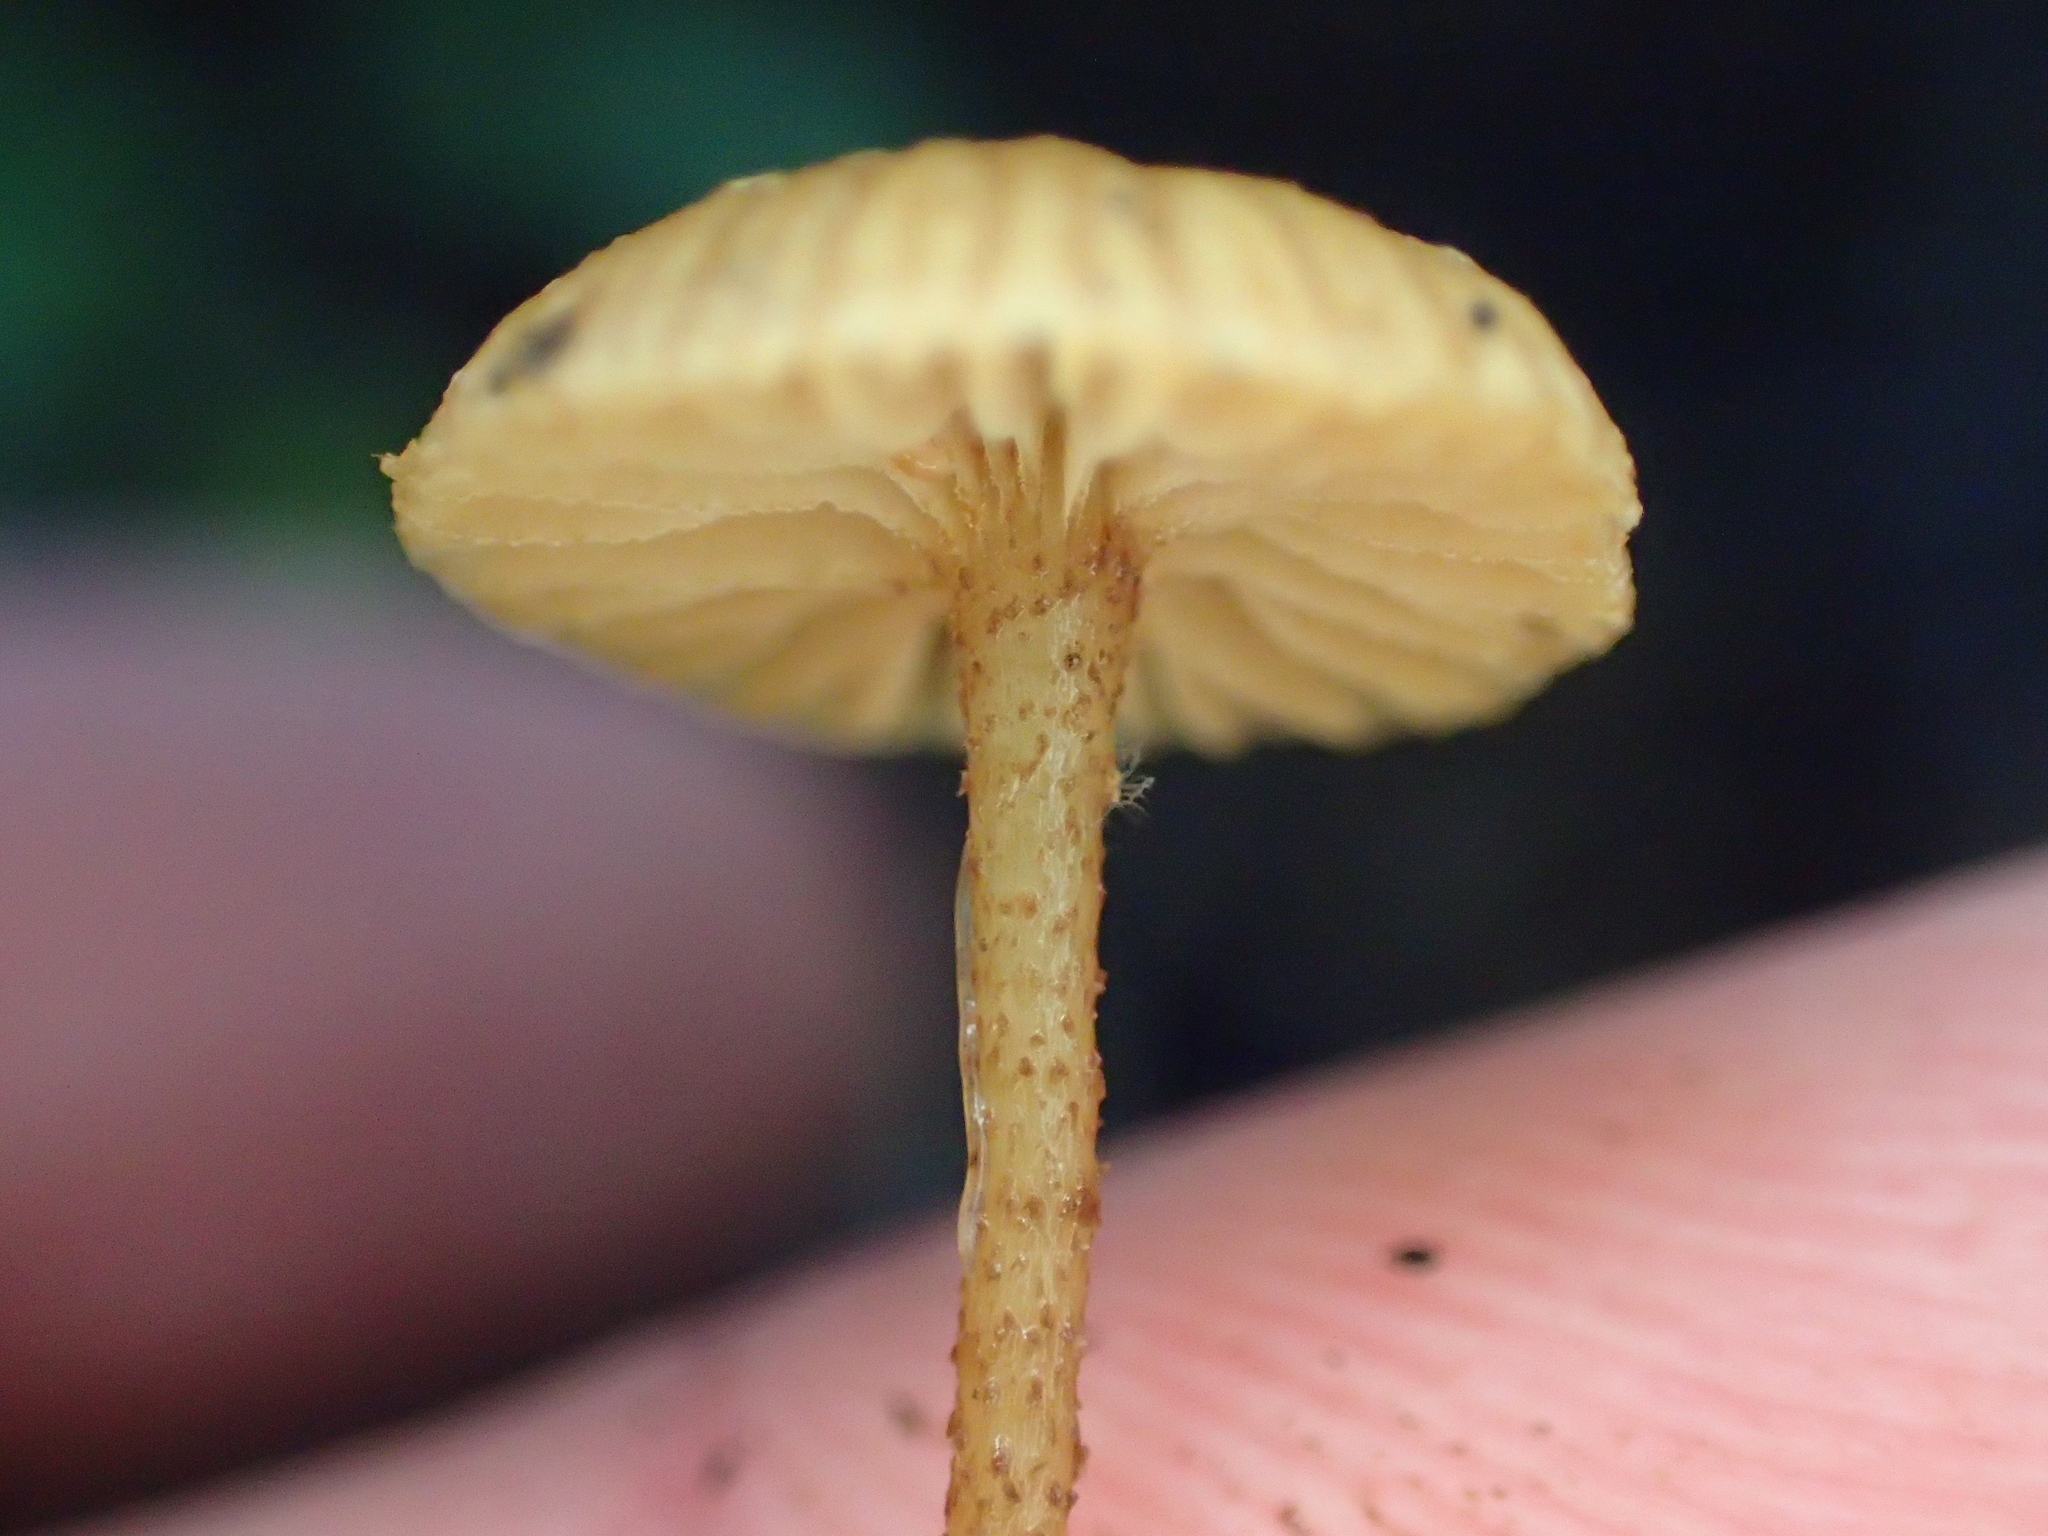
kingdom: Fungi
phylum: Basidiomycota
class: Agaricomycetes
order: Agaricales
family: Tubariaceae
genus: Tubaria
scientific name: Tubaria recta
